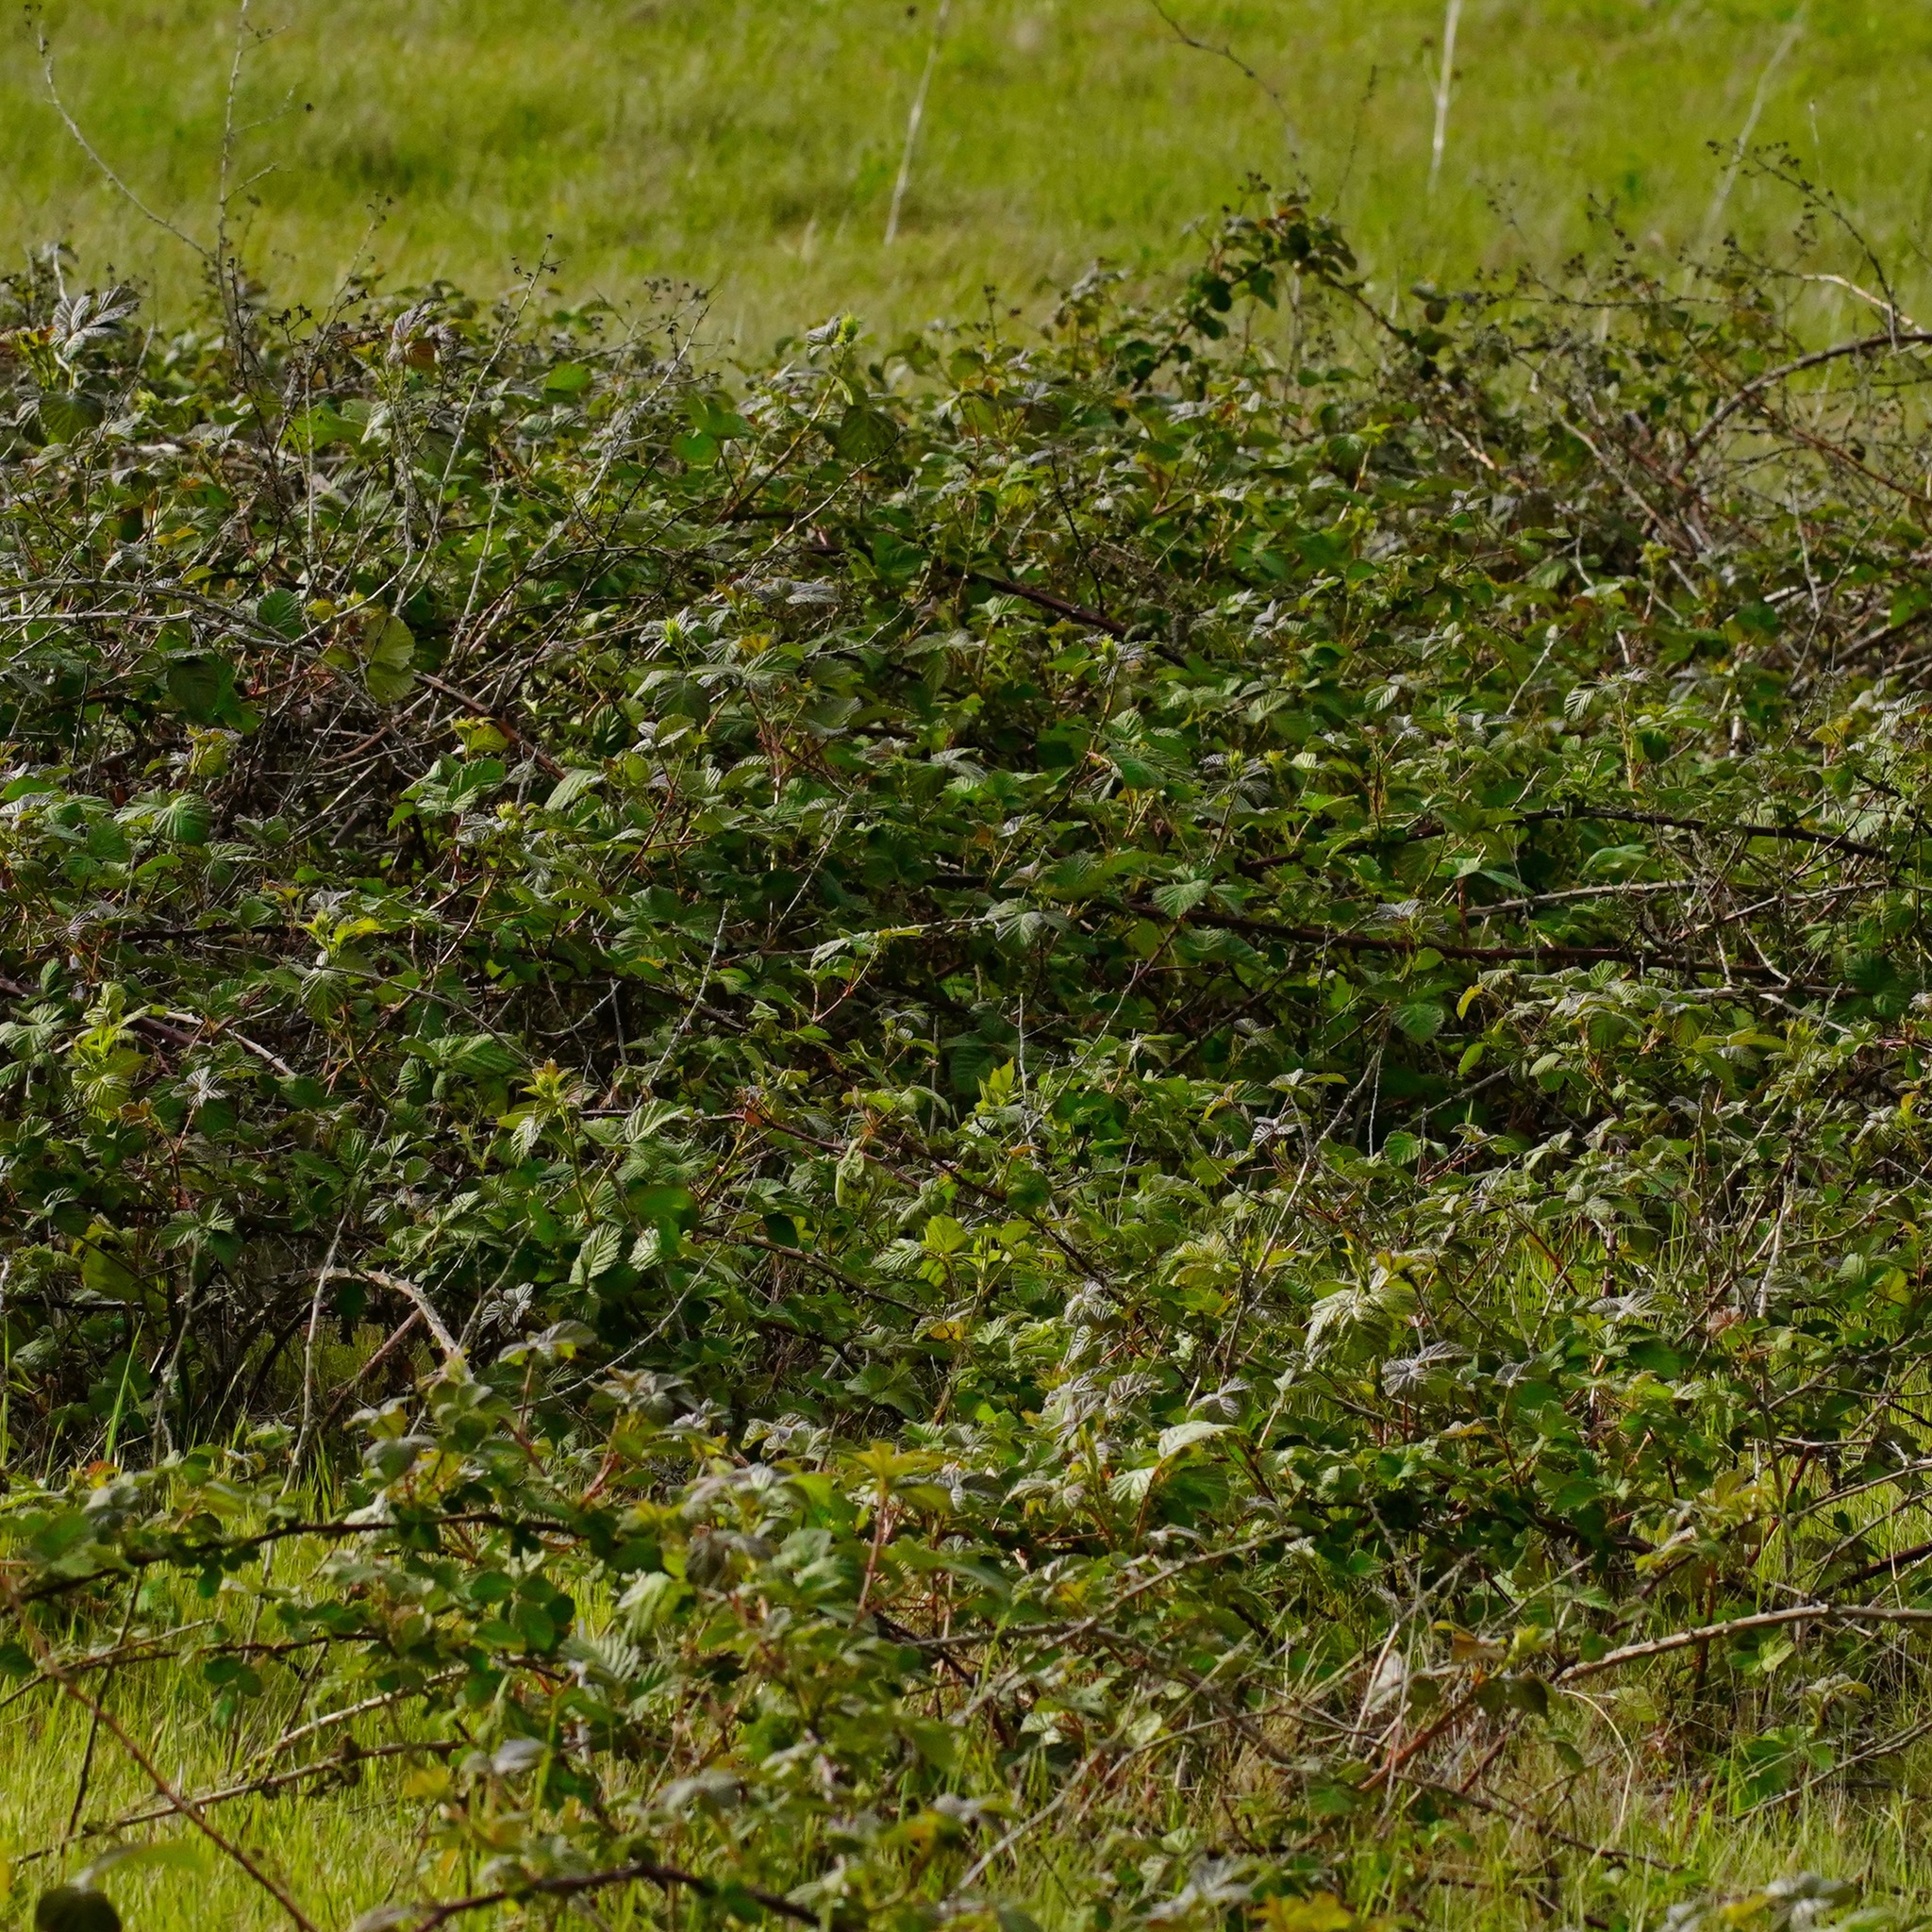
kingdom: Plantae
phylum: Tracheophyta
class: Magnoliopsida
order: Rosales
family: Rosaceae
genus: Rubus
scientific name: Rubus armeniacus
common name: Himalayan blackberry
